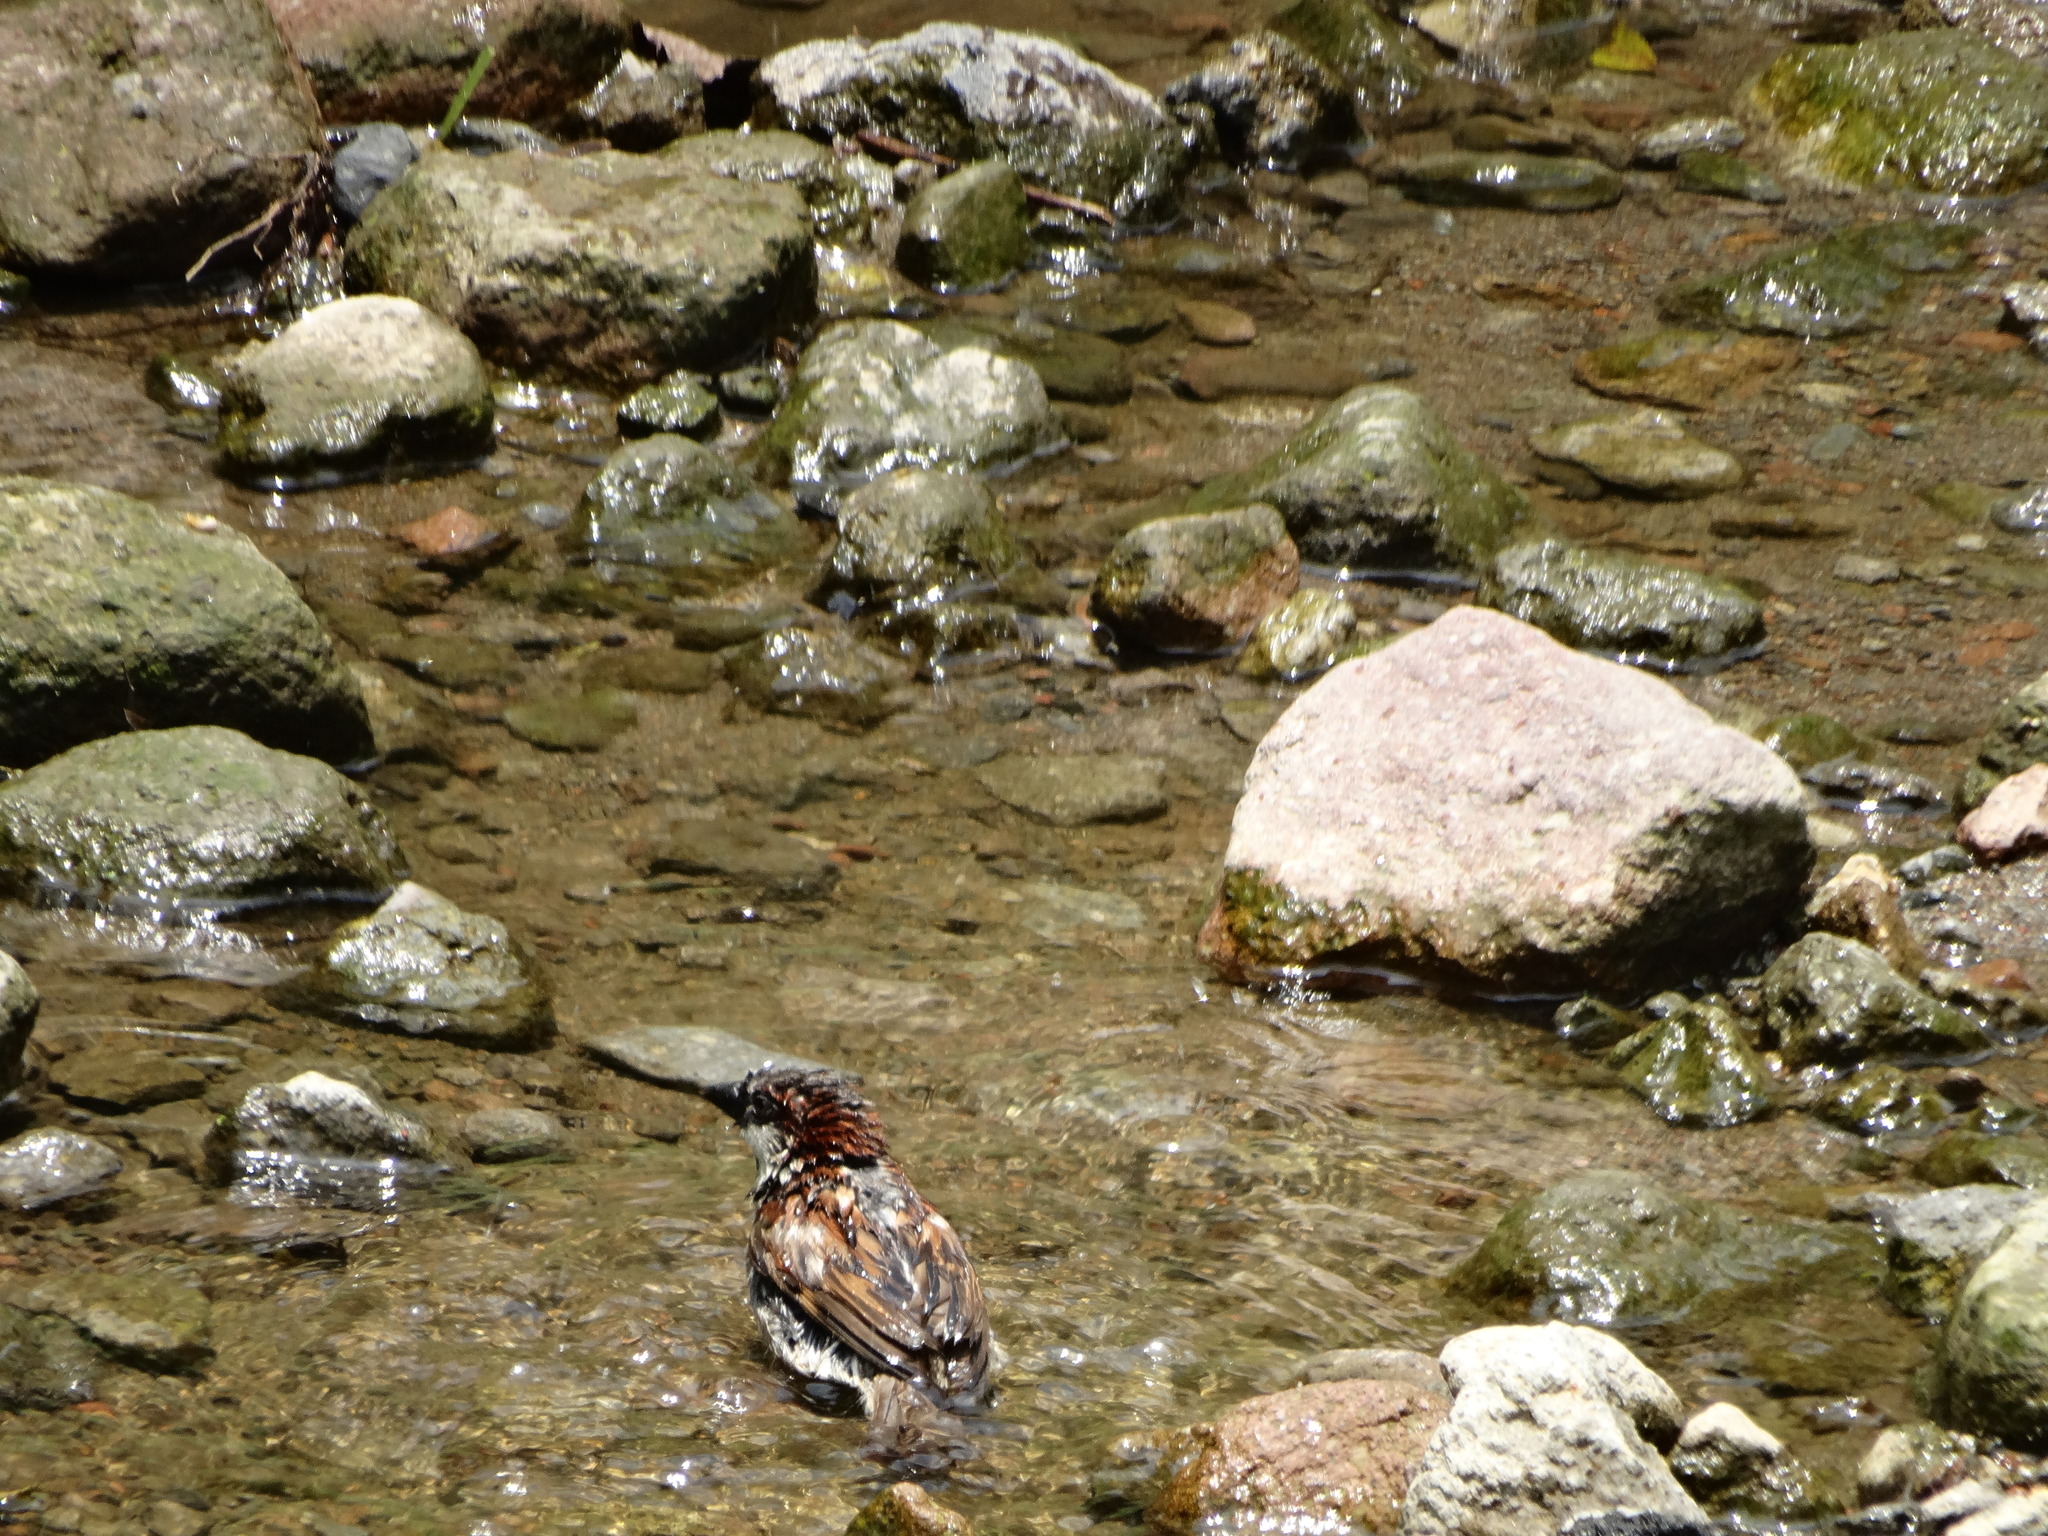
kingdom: Animalia
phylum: Chordata
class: Aves
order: Passeriformes
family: Passeridae
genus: Passer
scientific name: Passer domesticus
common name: House sparrow
